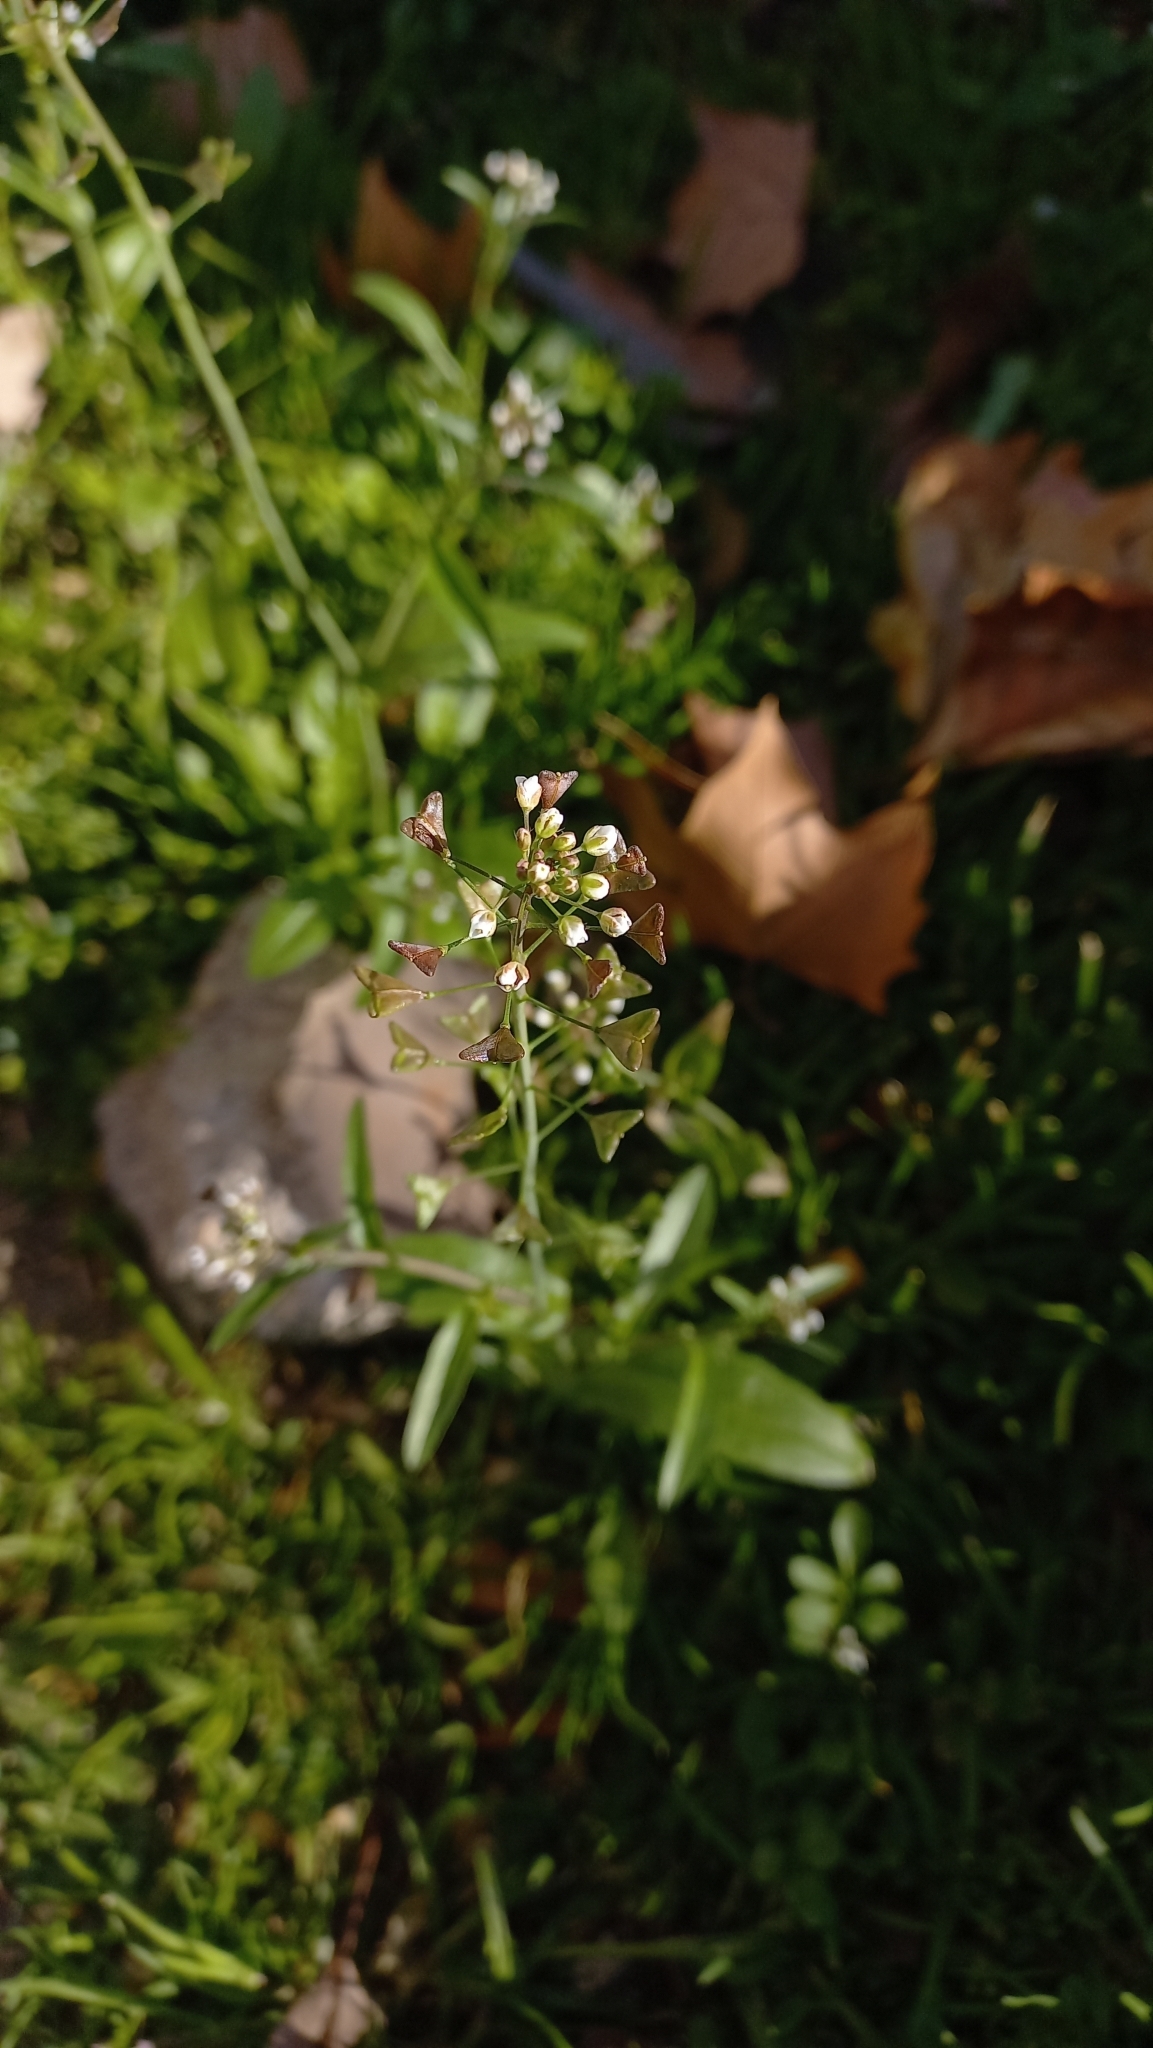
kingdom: Plantae
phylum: Tracheophyta
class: Magnoliopsida
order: Brassicales
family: Brassicaceae
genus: Capsella
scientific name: Capsella bursa-pastoris
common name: Shepherd's purse
